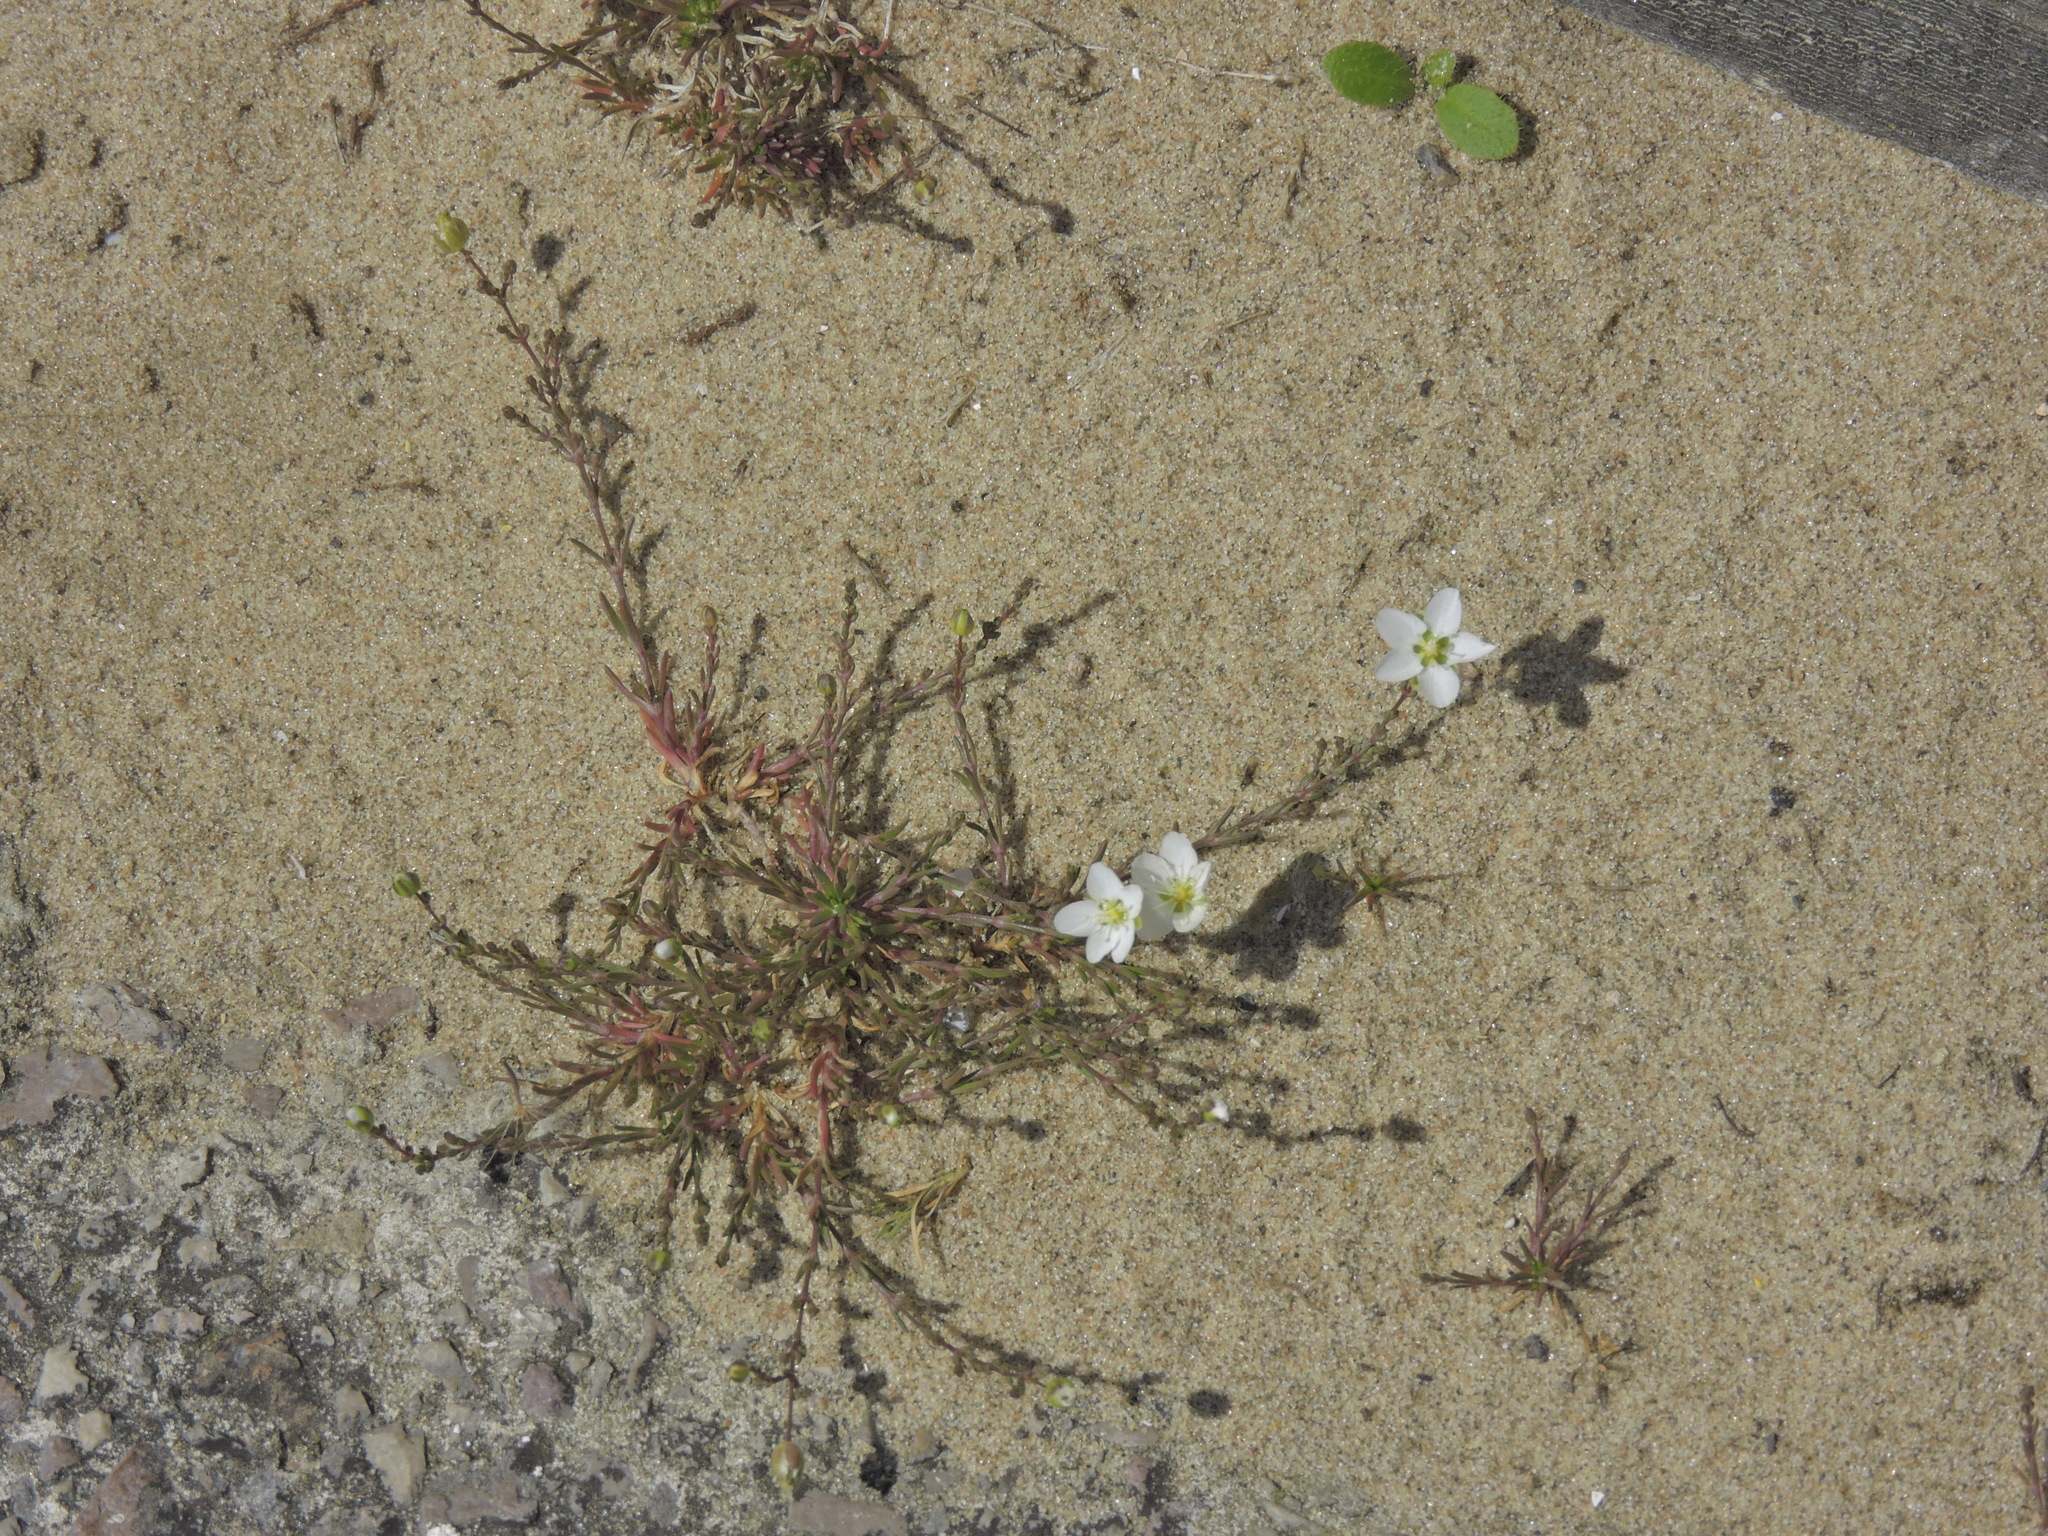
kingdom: Plantae
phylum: Tracheophyta
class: Magnoliopsida
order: Caryophyllales
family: Caryophyllaceae
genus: Sagina
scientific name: Sagina nodosa
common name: Knotted pearlwort
